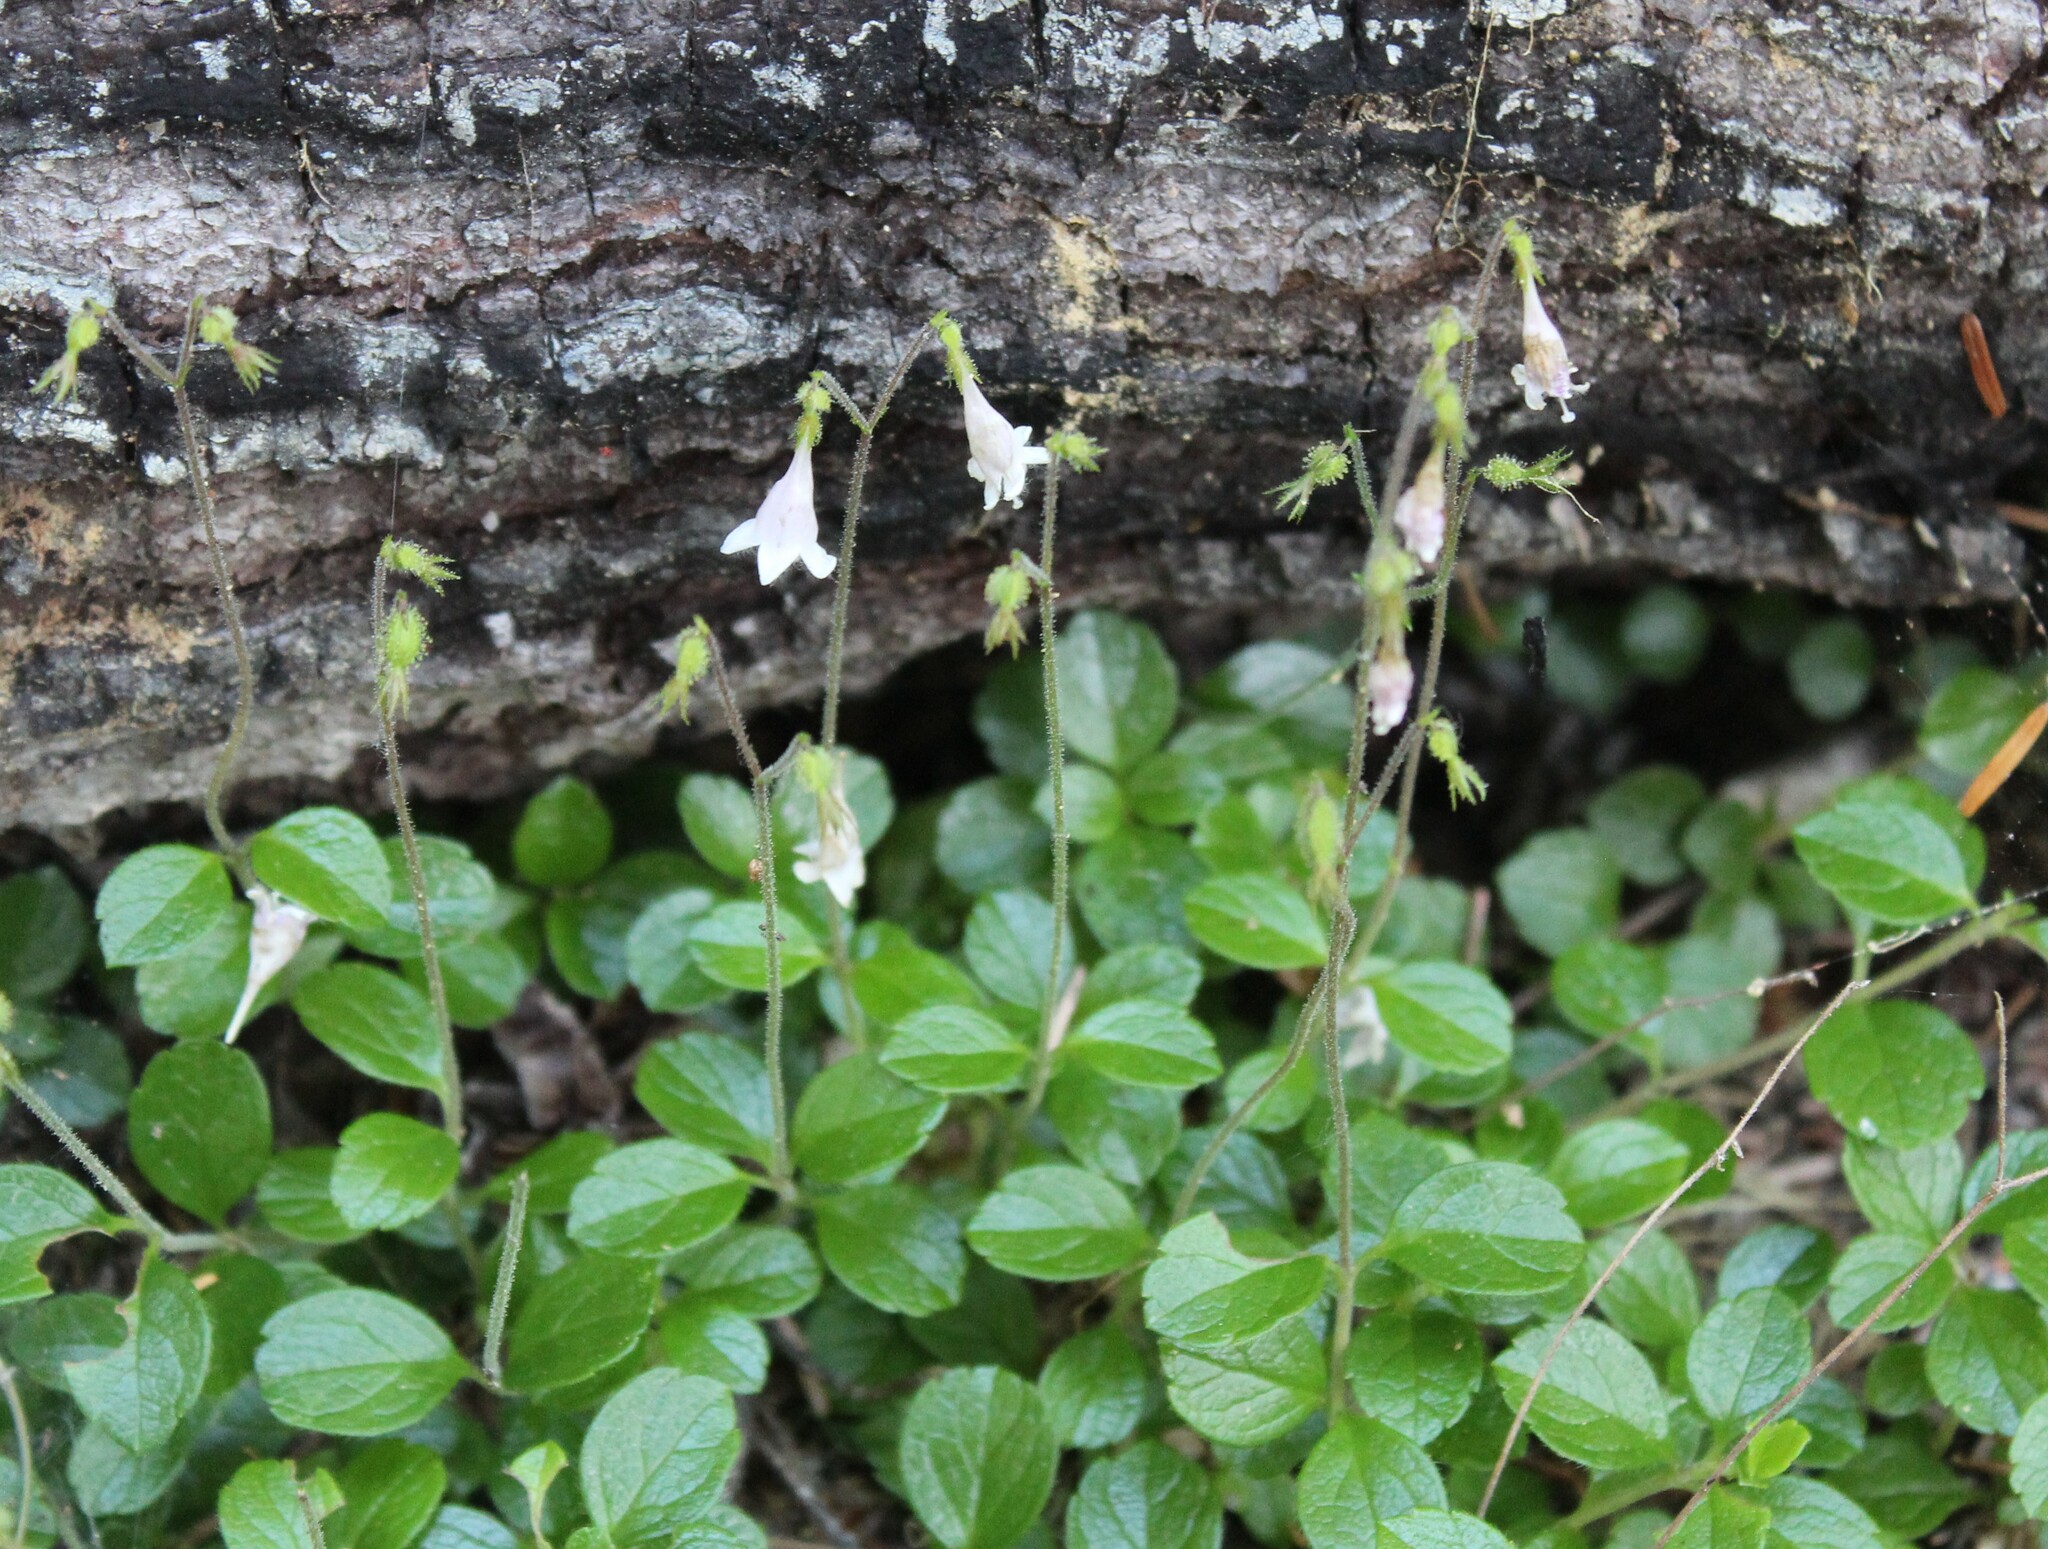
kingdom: Plantae
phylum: Tracheophyta
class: Magnoliopsida
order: Dipsacales
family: Caprifoliaceae
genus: Linnaea
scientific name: Linnaea borealis
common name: Twinflower
